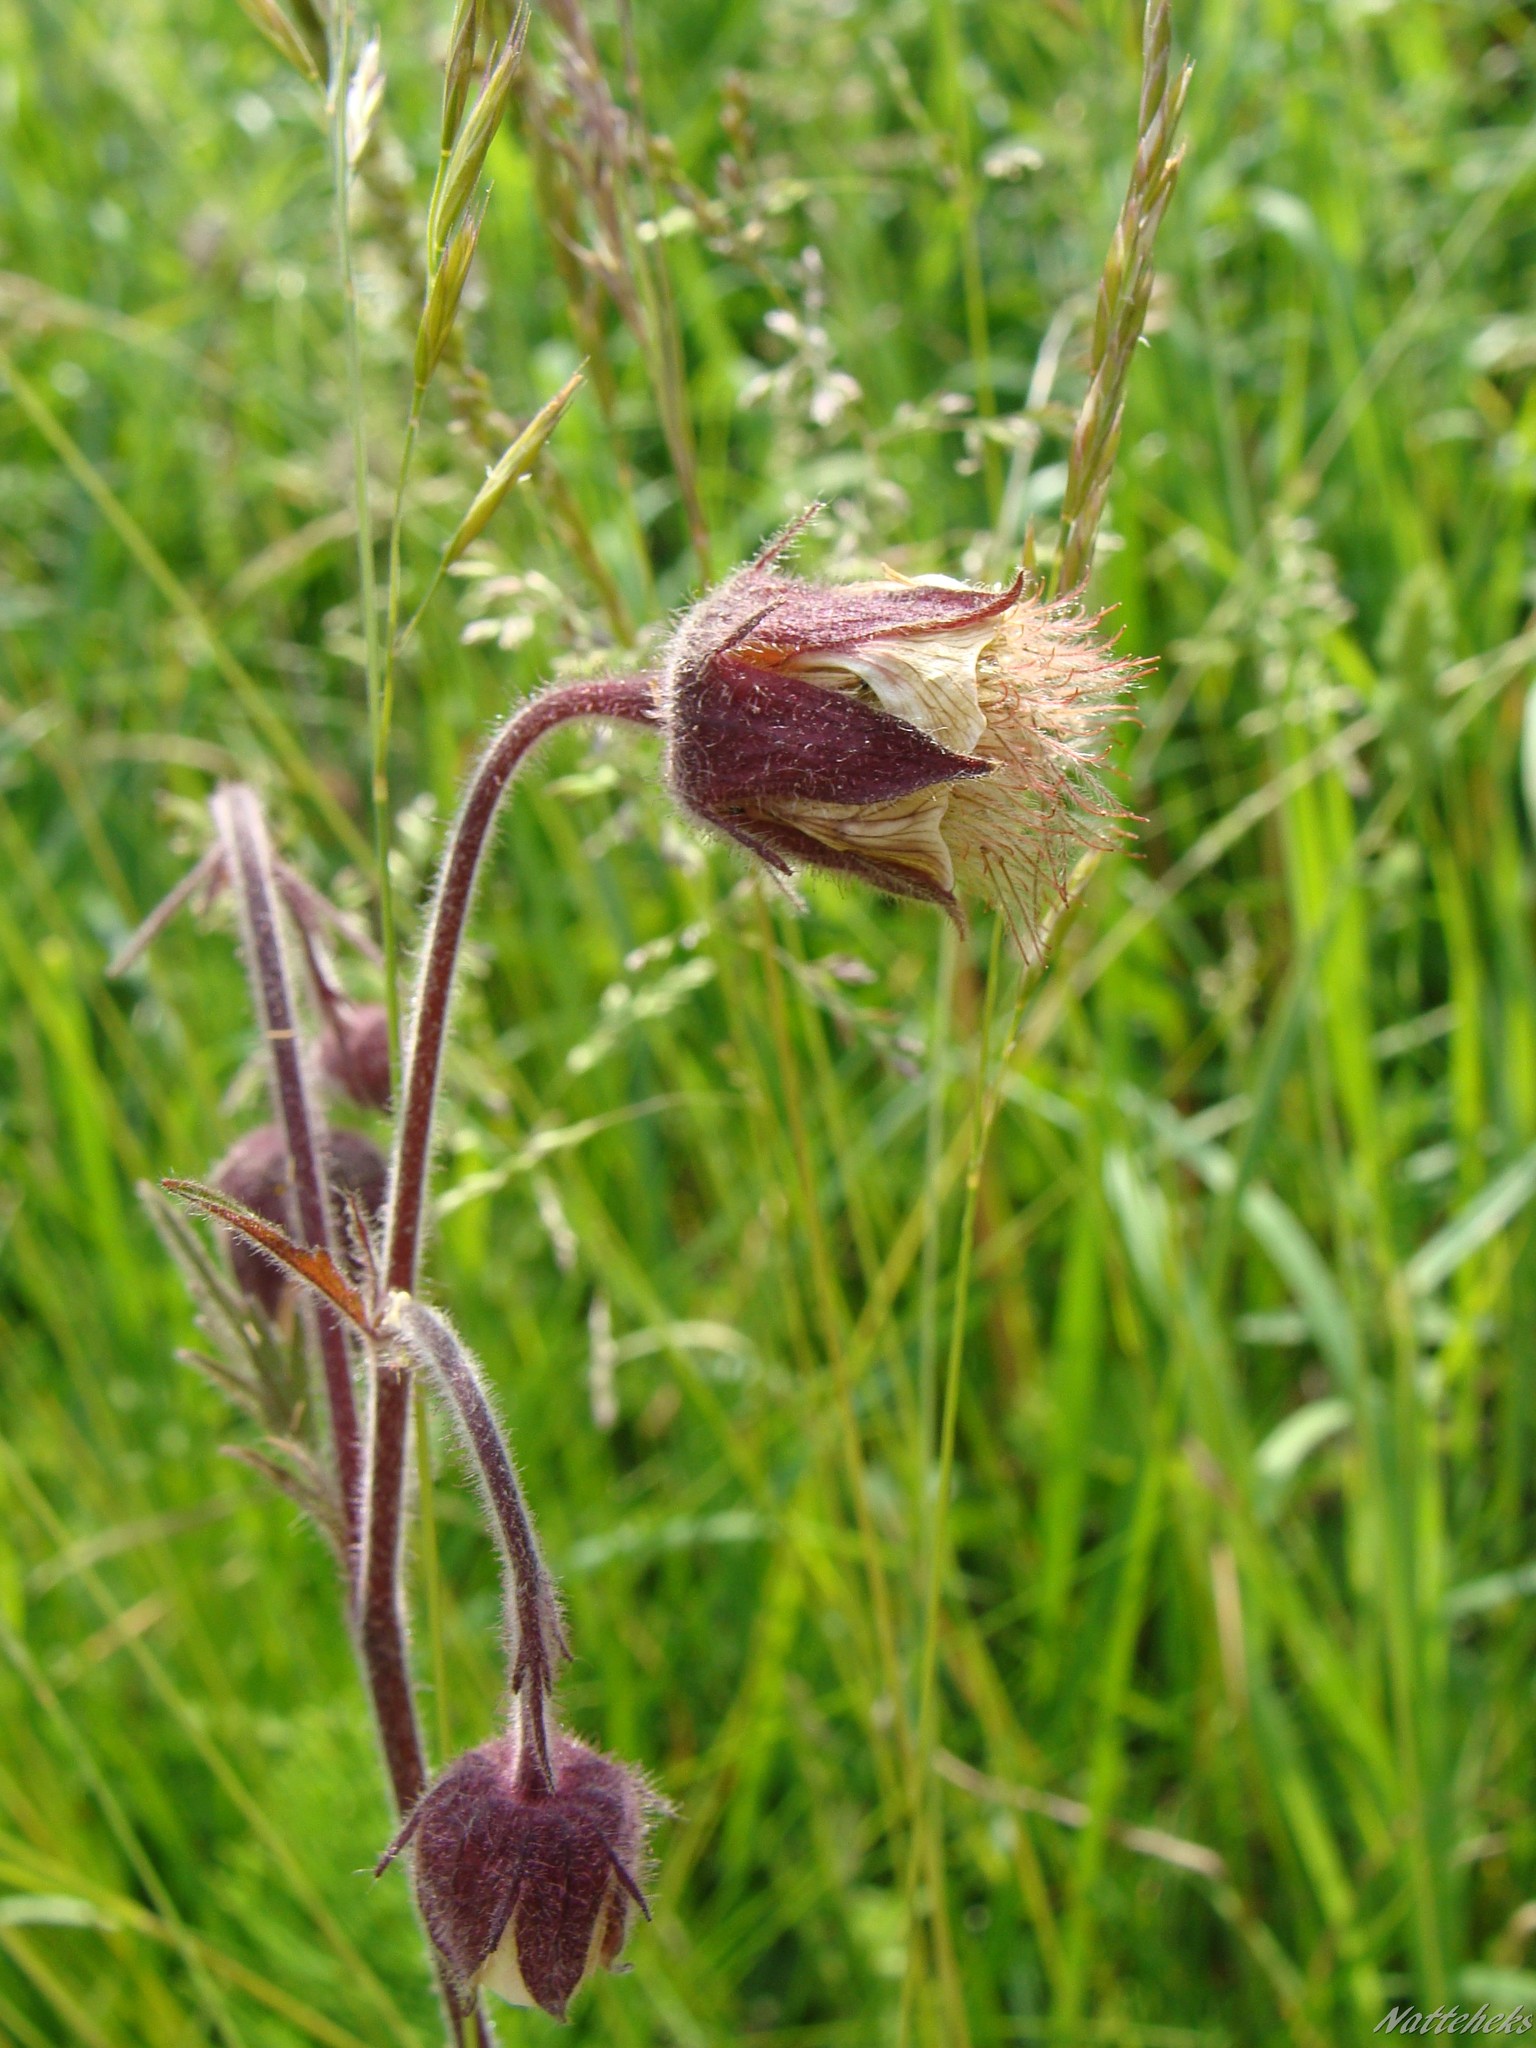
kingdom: Plantae
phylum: Tracheophyta
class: Magnoliopsida
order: Rosales
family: Rosaceae
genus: Geum
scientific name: Geum rivale
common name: Water avens
